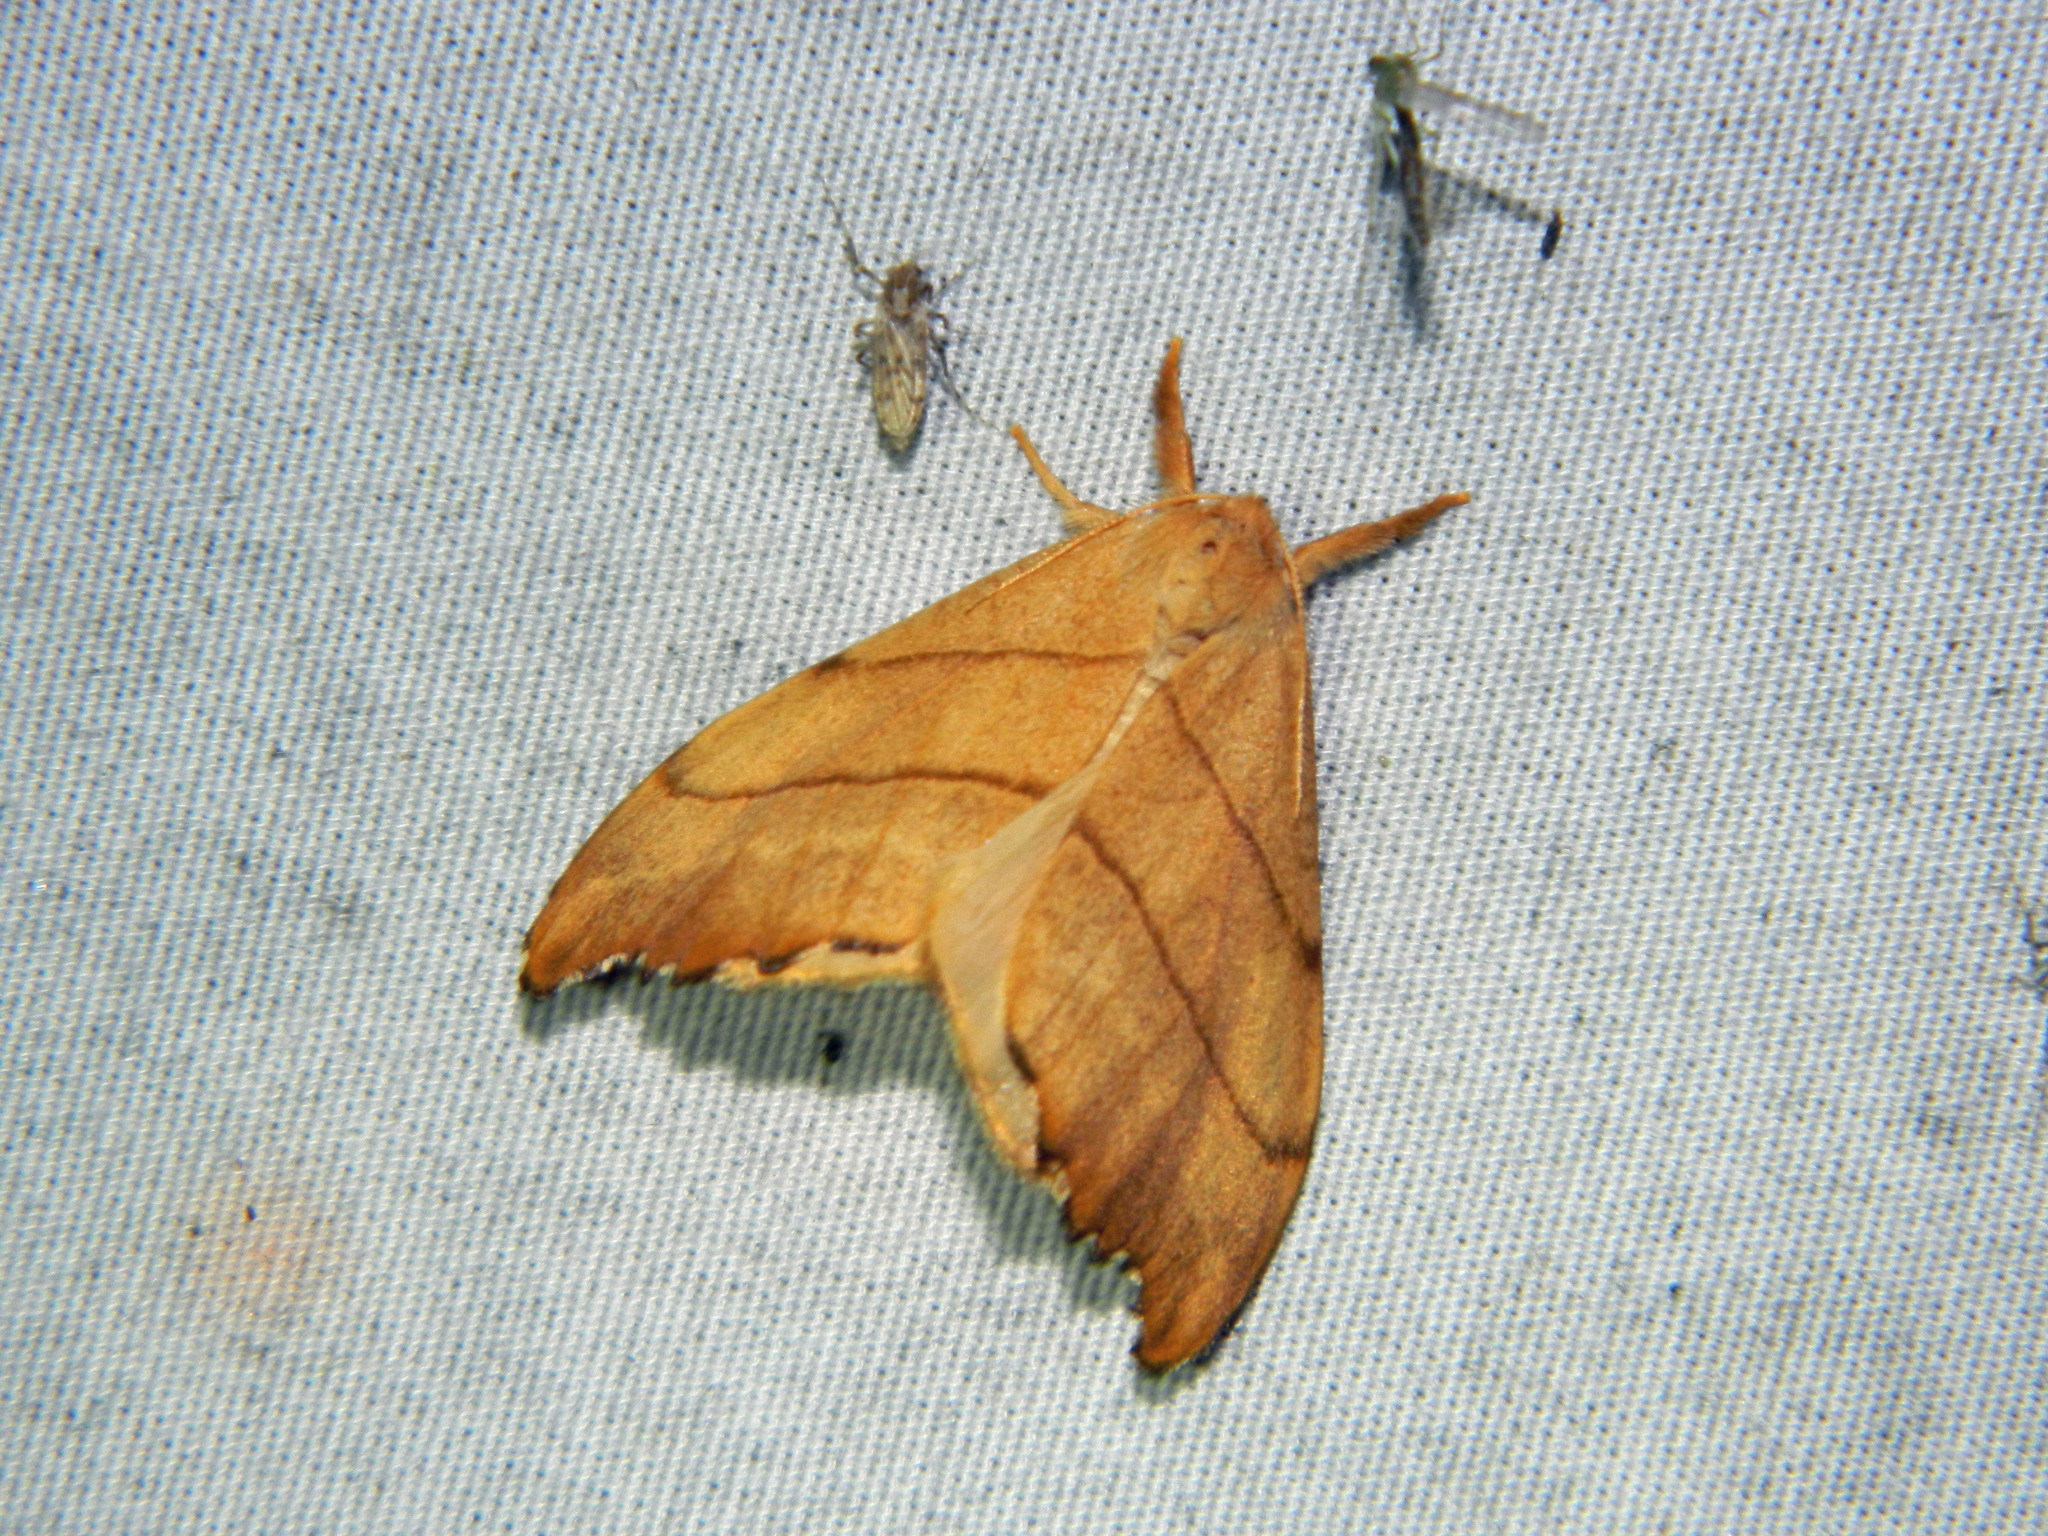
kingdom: Animalia
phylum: Arthropoda
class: Insecta
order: Lepidoptera
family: Drepanidae
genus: Falcaria
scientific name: Falcaria bilineata
